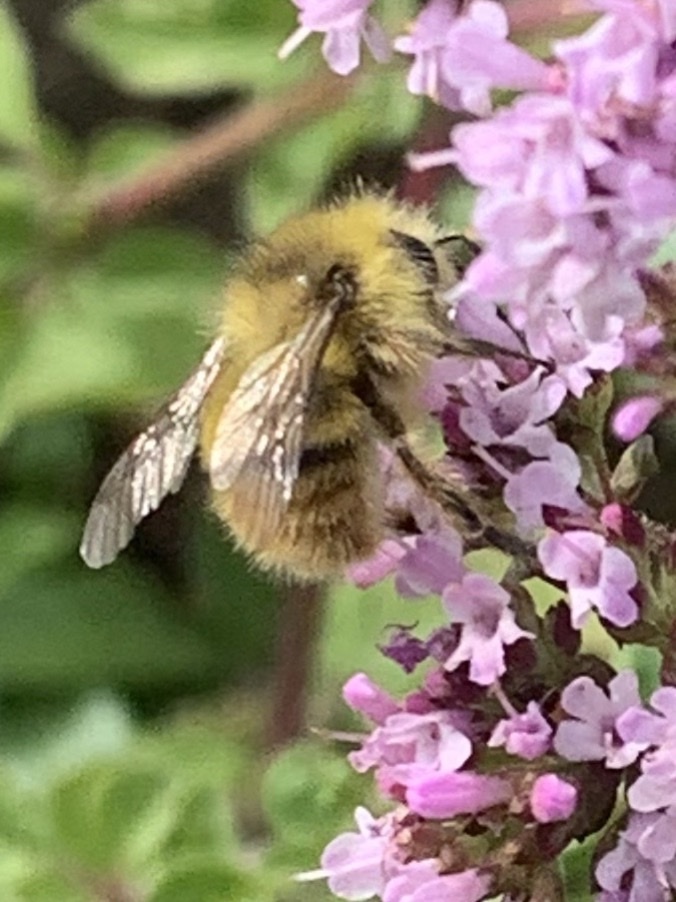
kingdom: Animalia
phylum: Arthropoda
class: Insecta
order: Hymenoptera
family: Apidae
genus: Bombus
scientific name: Bombus mixtus
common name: Fuzzy-horned bumble bee
